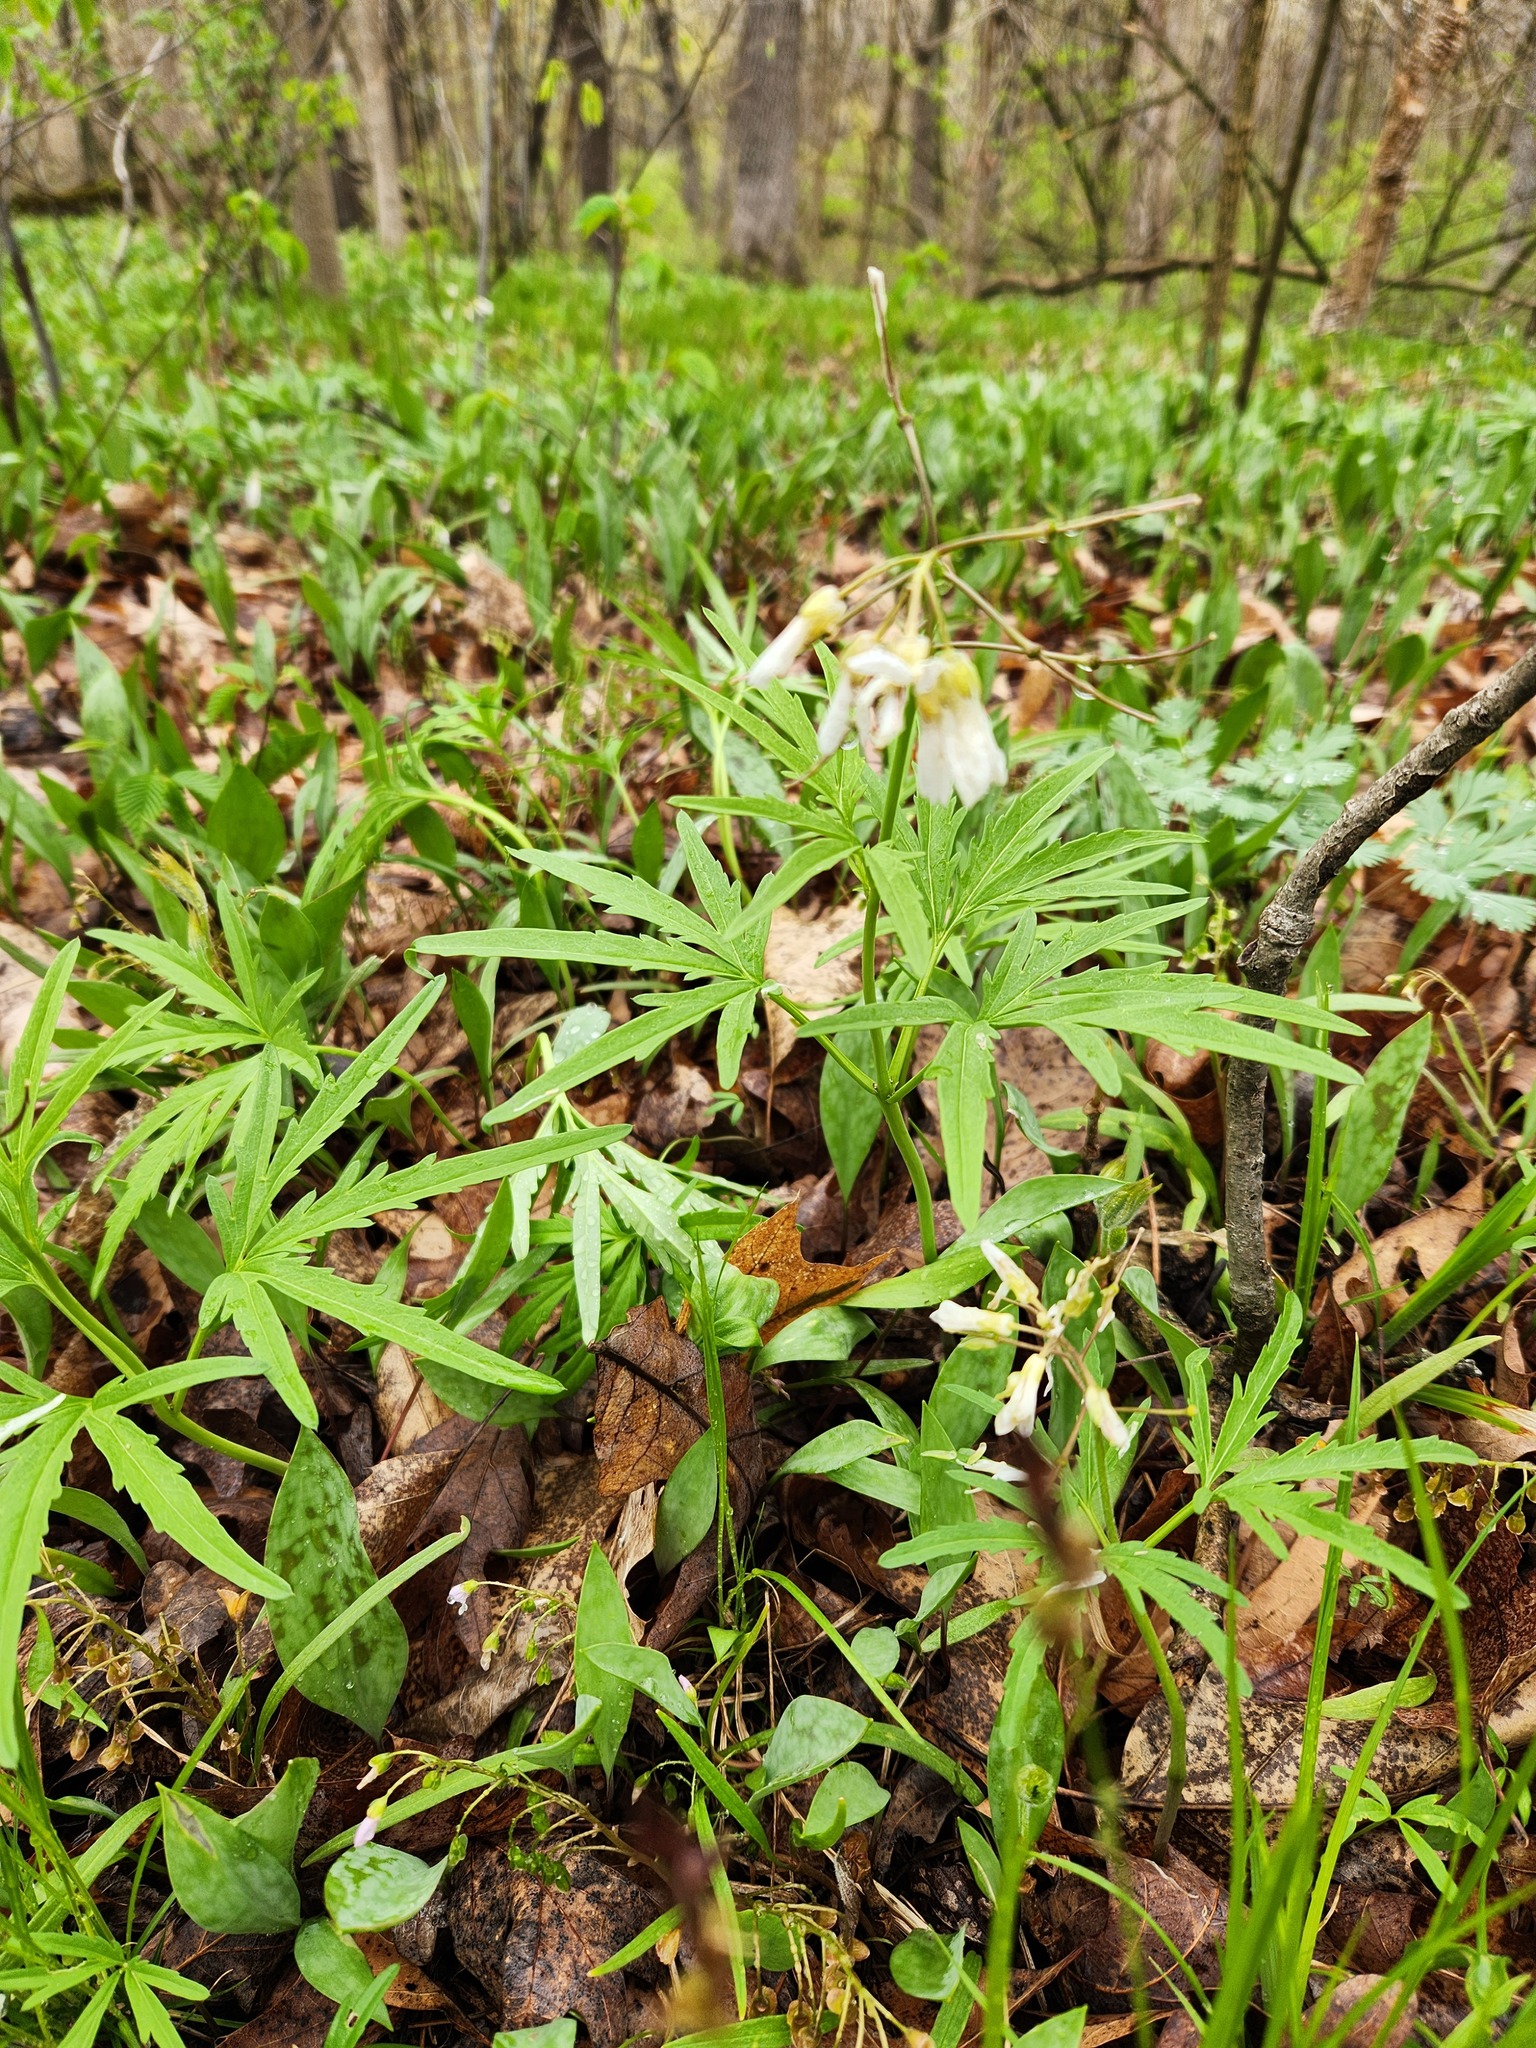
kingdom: Plantae
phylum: Tracheophyta
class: Magnoliopsida
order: Brassicales
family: Brassicaceae
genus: Cardamine
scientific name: Cardamine concatenata
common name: Cut-leaf toothcup
